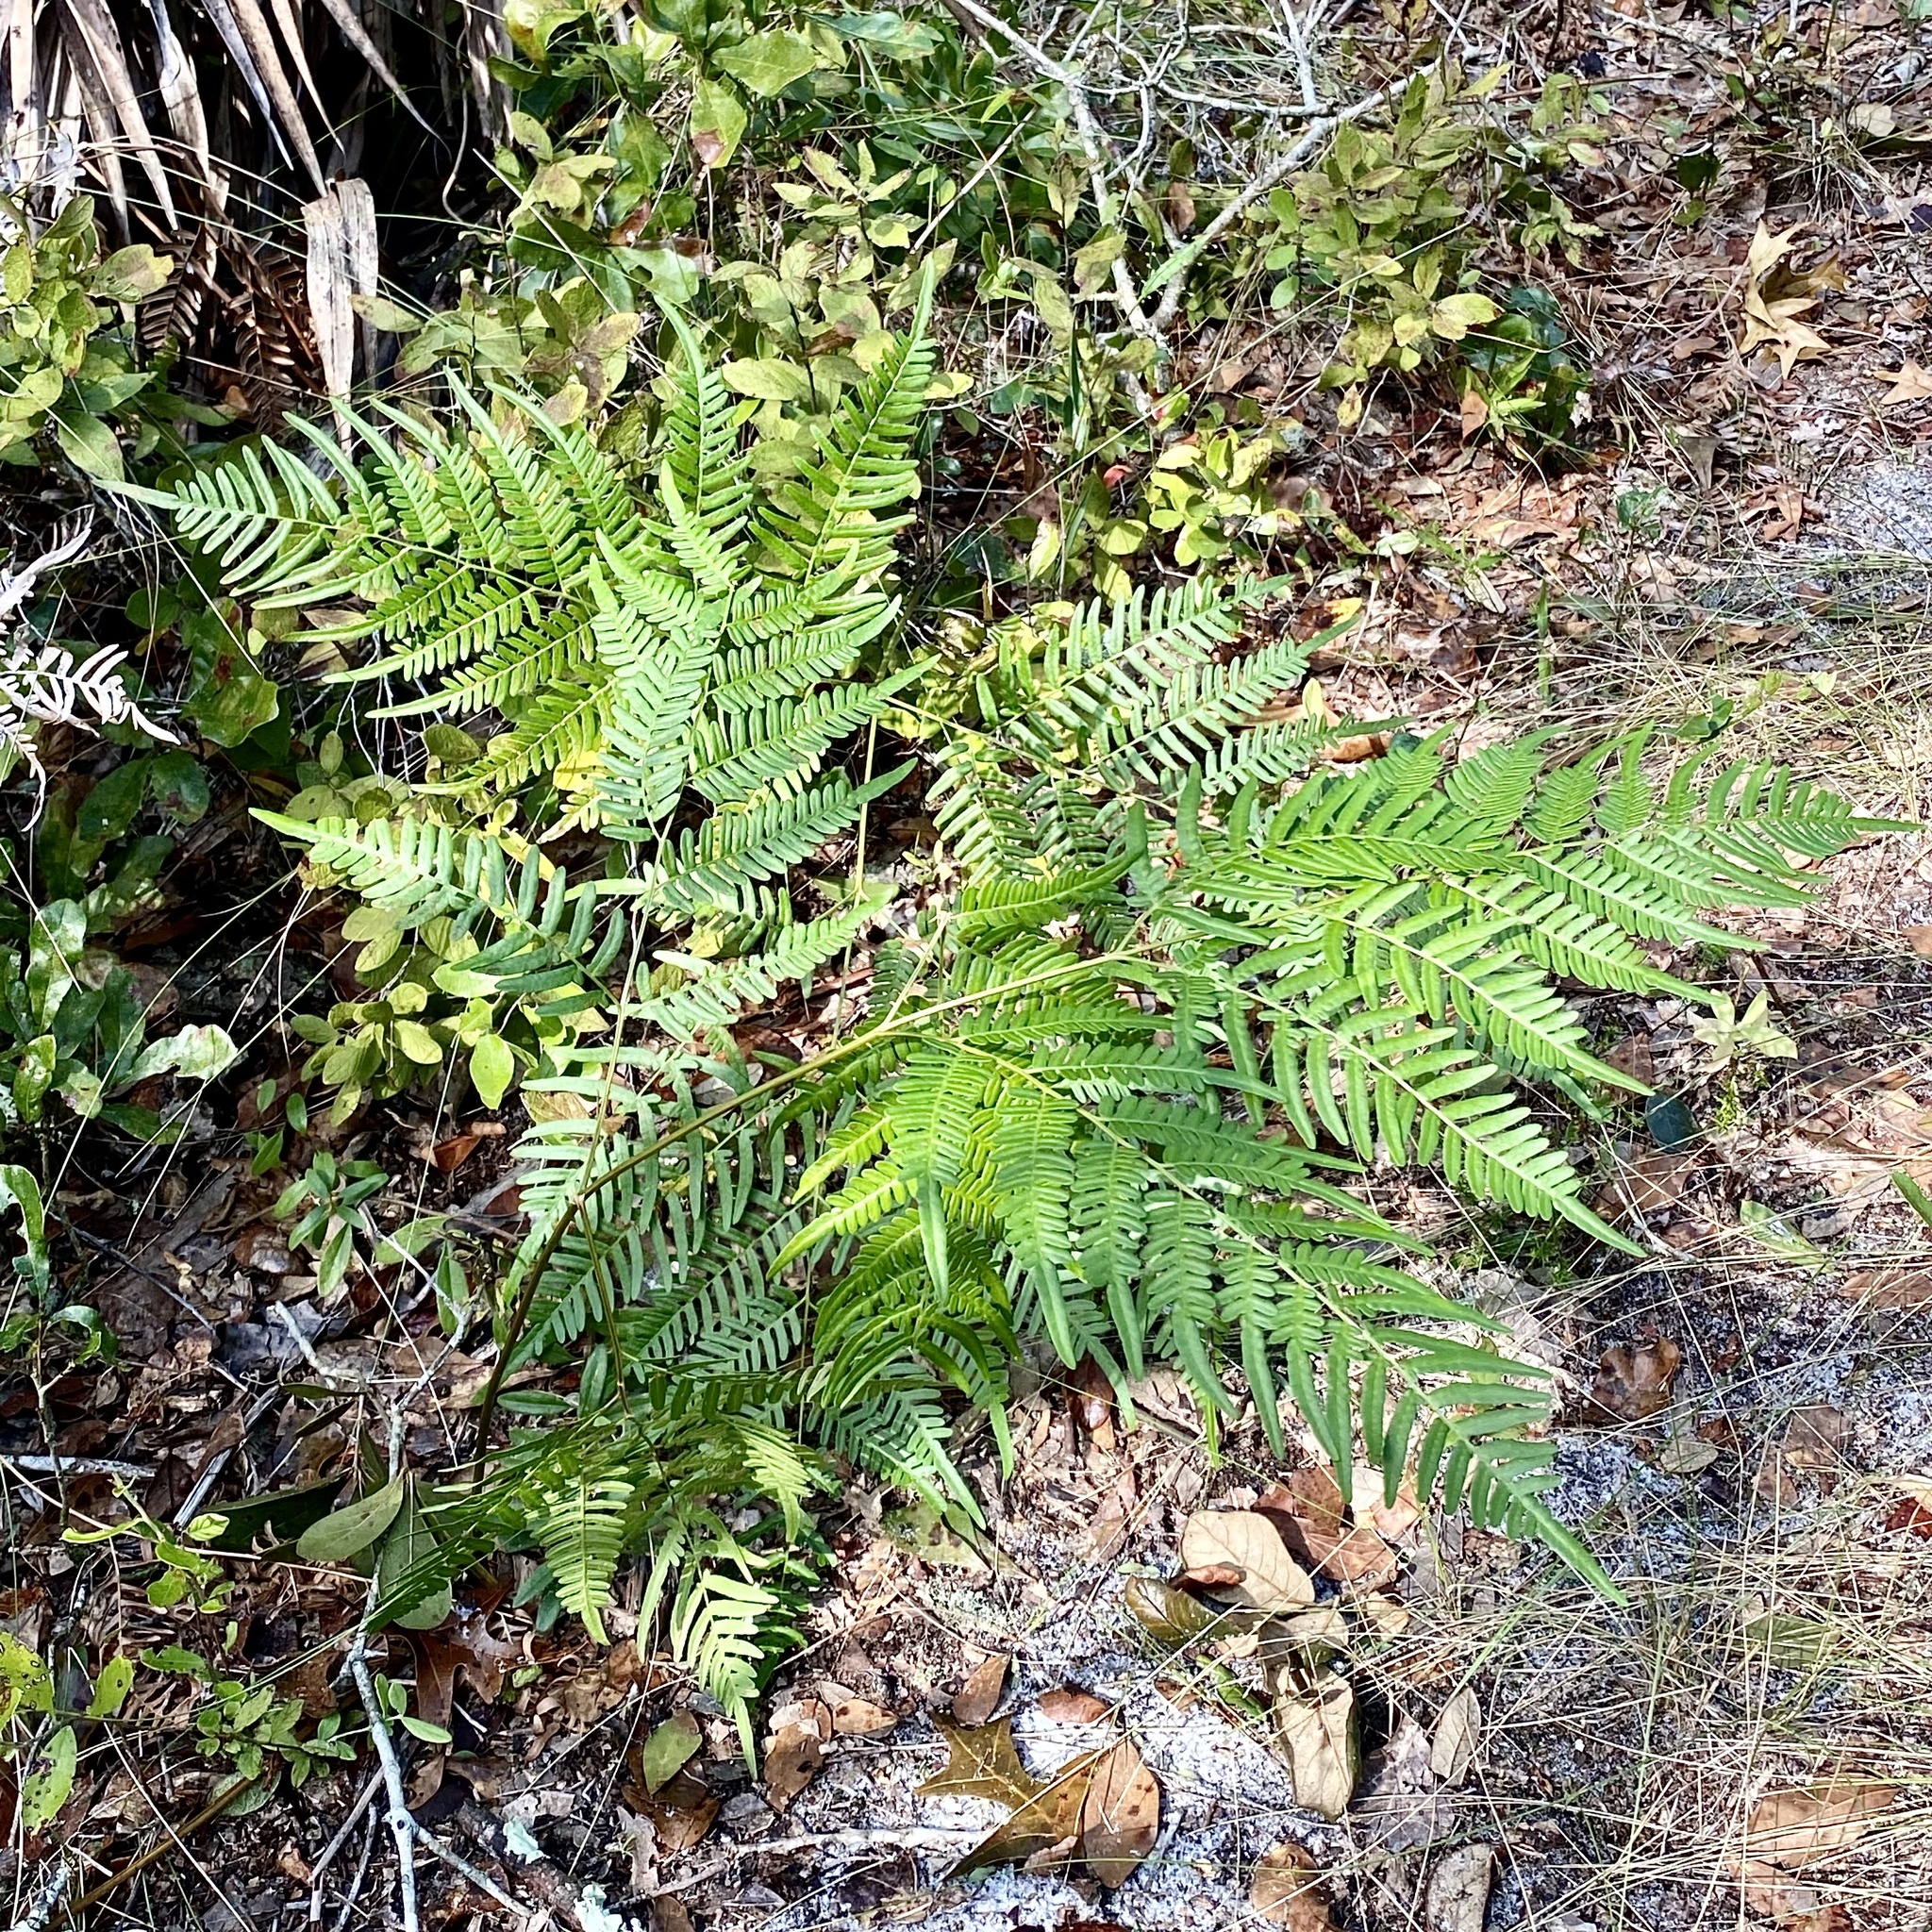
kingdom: Plantae
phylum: Tracheophyta
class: Polypodiopsida
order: Polypodiales
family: Dennstaedtiaceae
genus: Pteridium
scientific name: Pteridium
